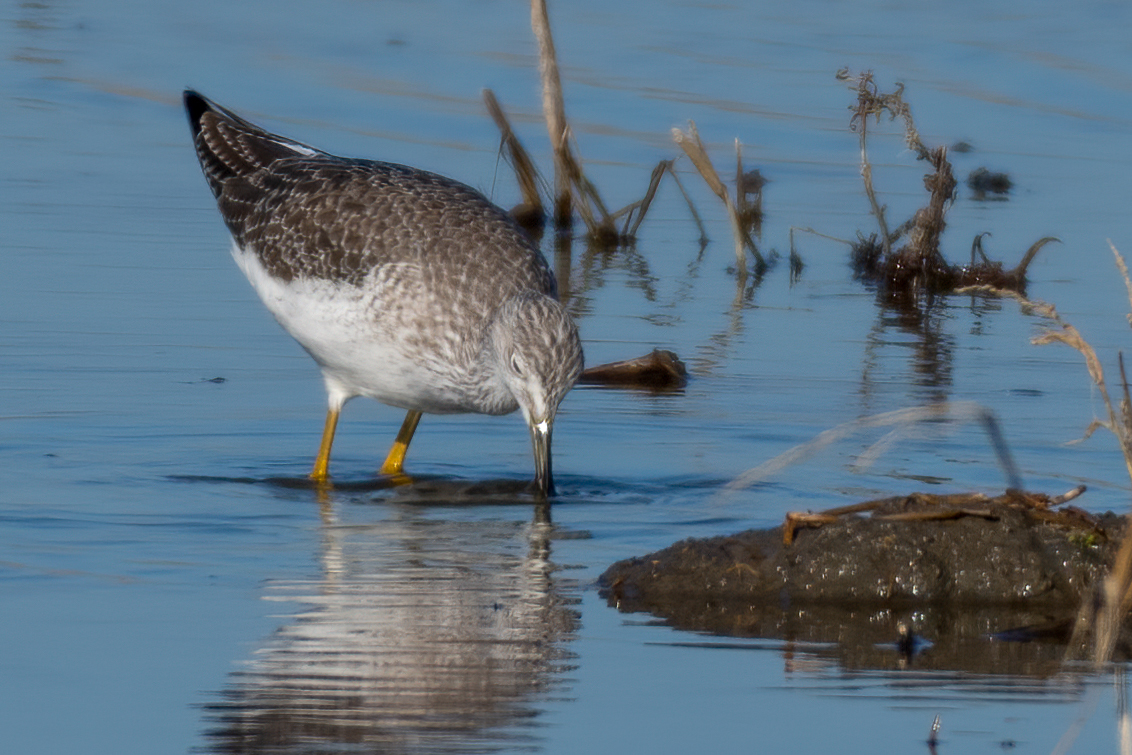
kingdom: Animalia
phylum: Chordata
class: Aves
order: Charadriiformes
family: Scolopacidae
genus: Tringa
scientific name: Tringa melanoleuca
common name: Greater yellowlegs
